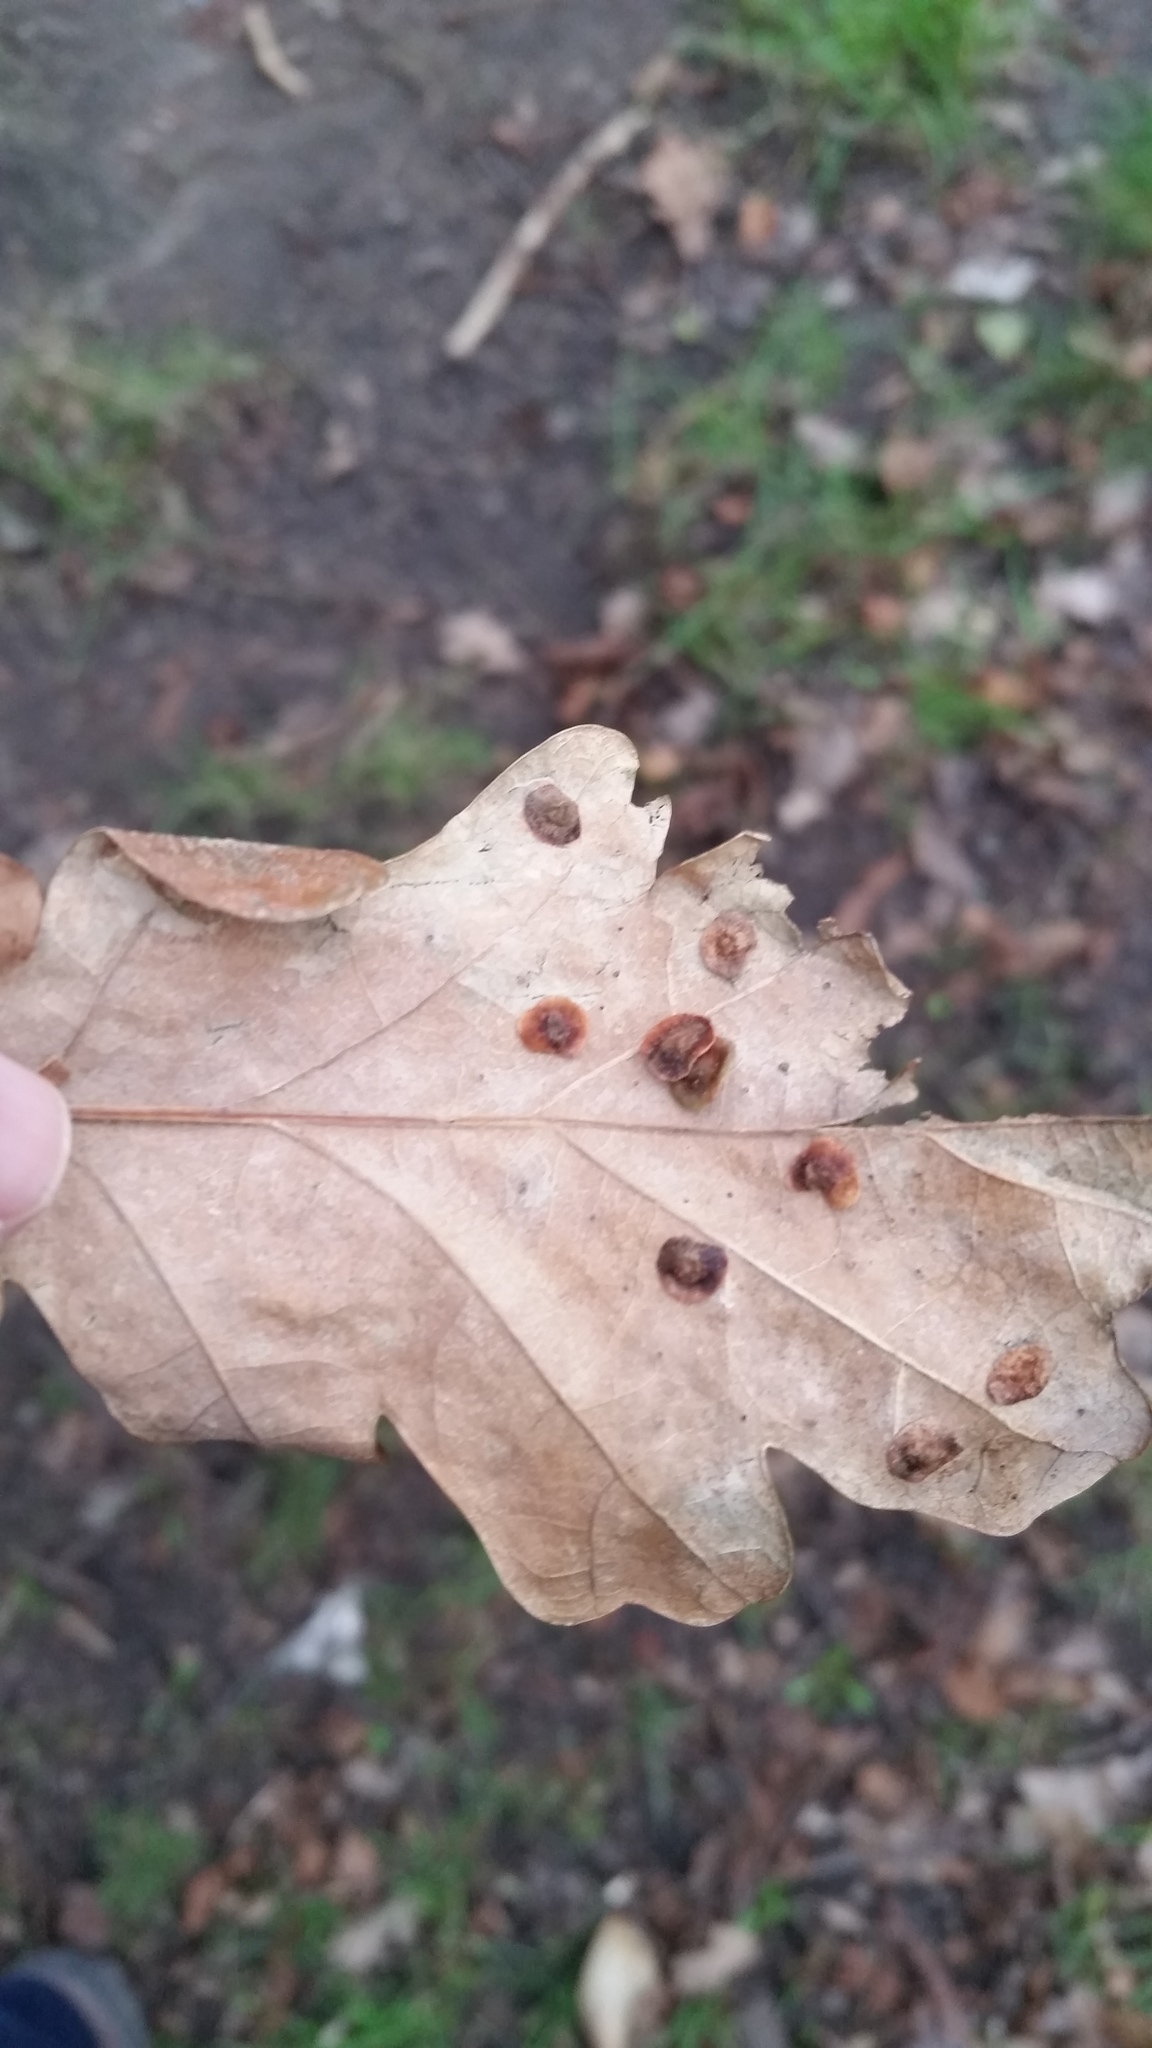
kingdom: Animalia
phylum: Arthropoda
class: Insecta
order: Hymenoptera
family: Cynipidae
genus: Neuroterus
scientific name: Neuroterus quercusbaccarum
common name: Common spangle gall
